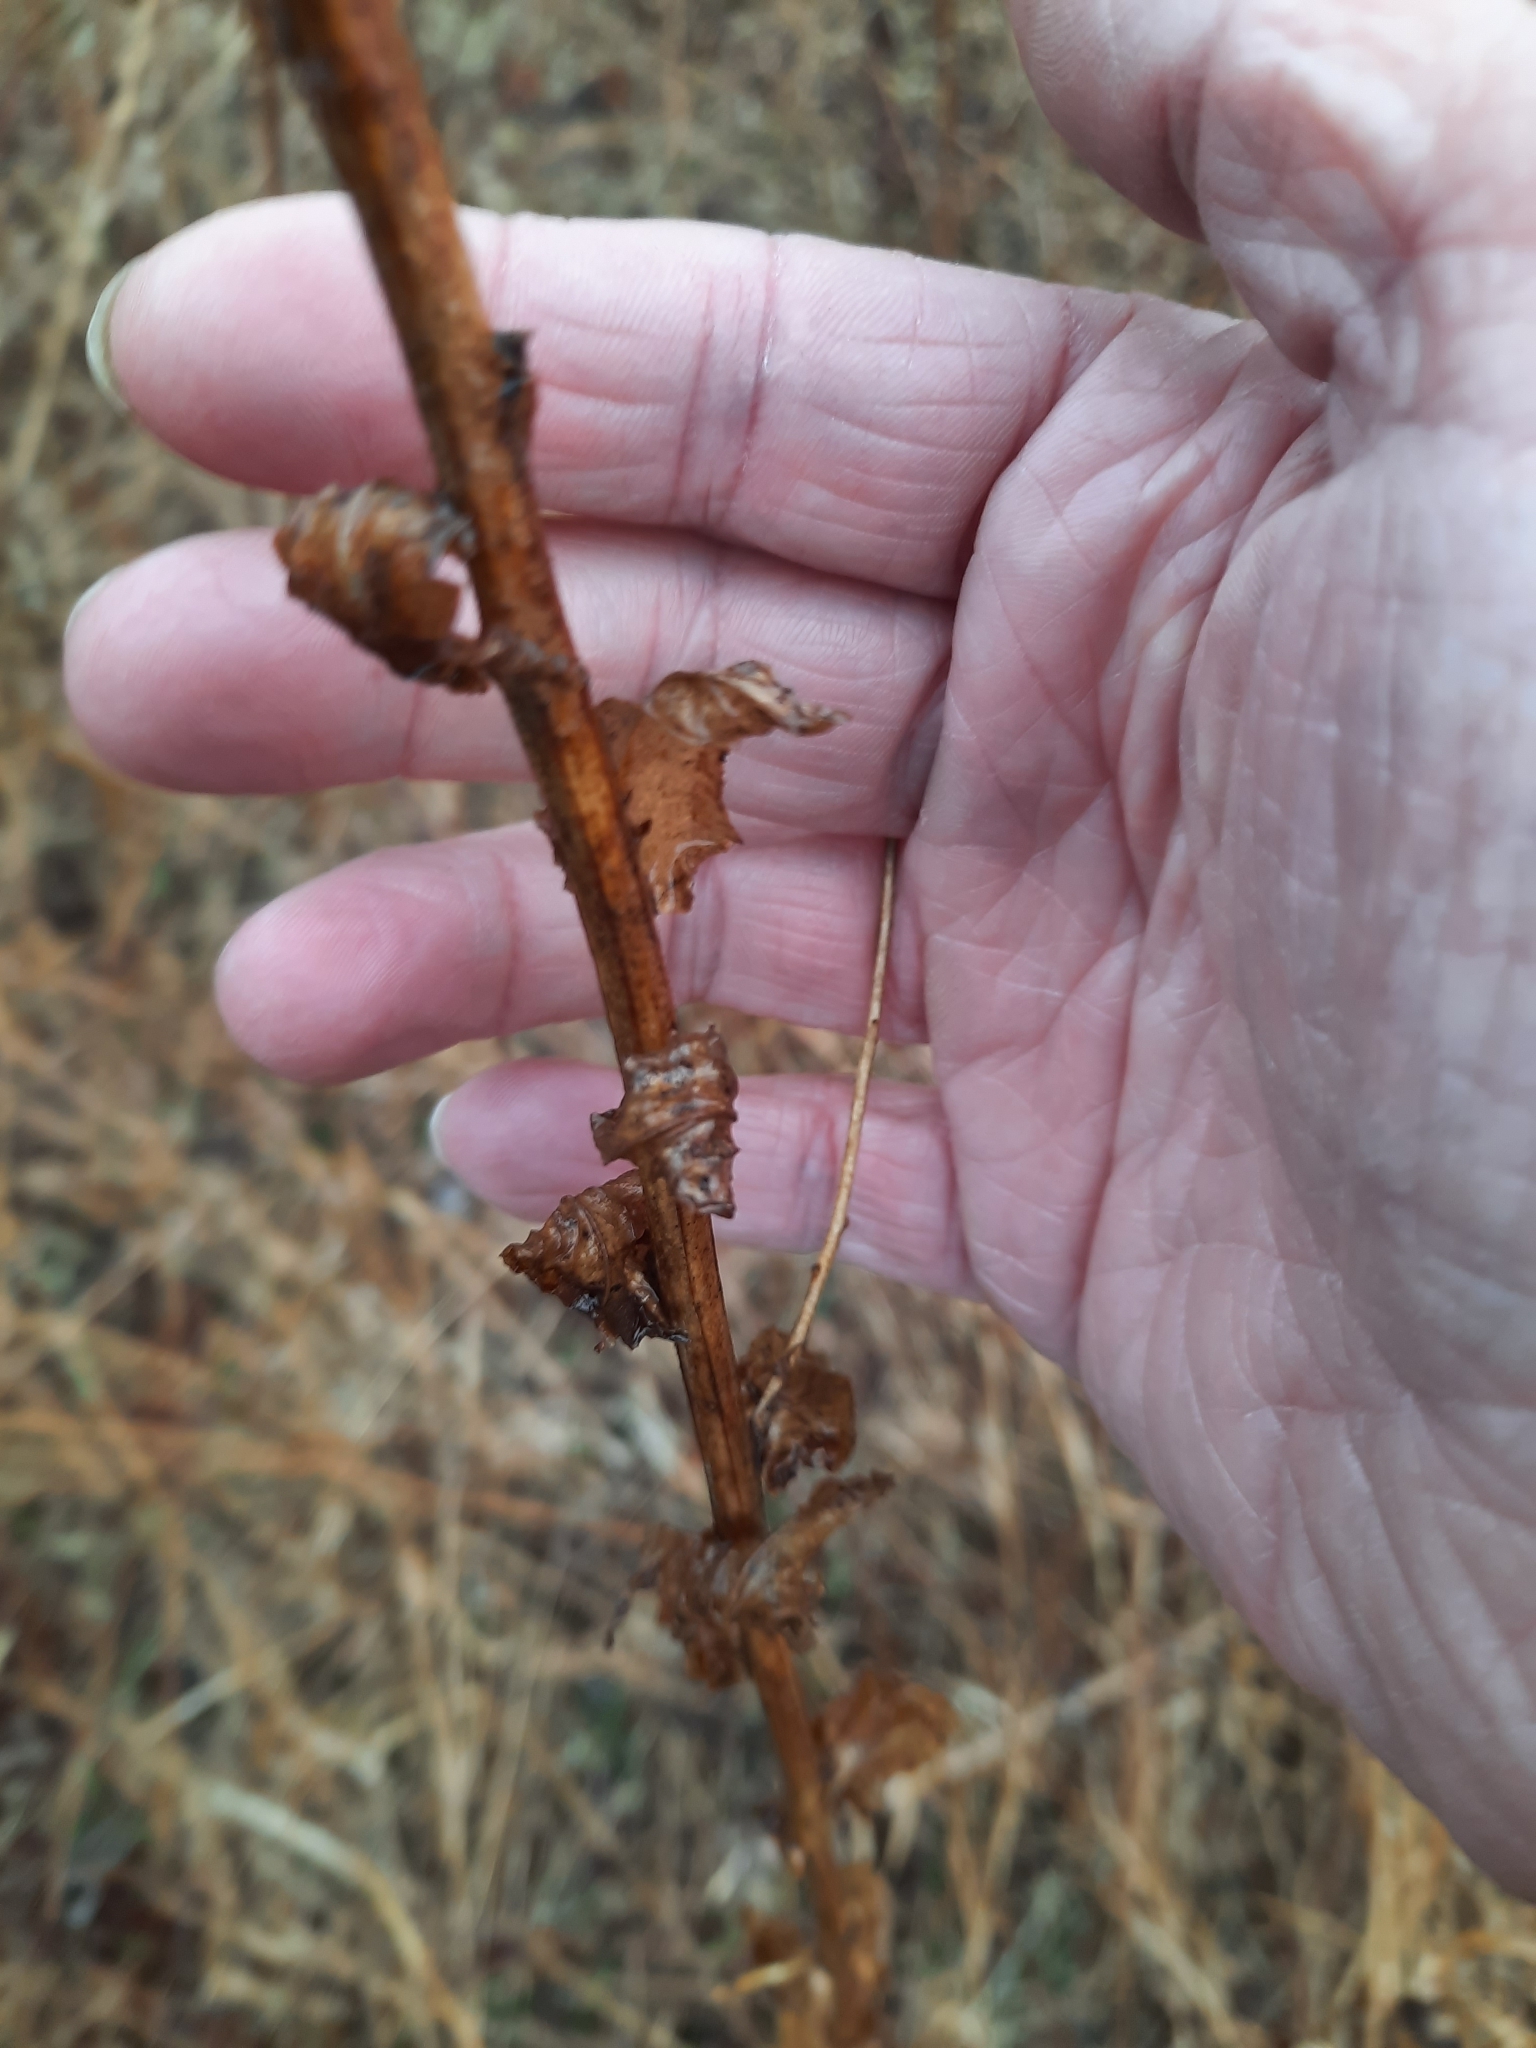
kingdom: Plantae
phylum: Tracheophyta
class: Magnoliopsida
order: Lamiales
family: Scrophulariaceae
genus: Verbascum
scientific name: Verbascum blattaria
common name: Moth mullein
